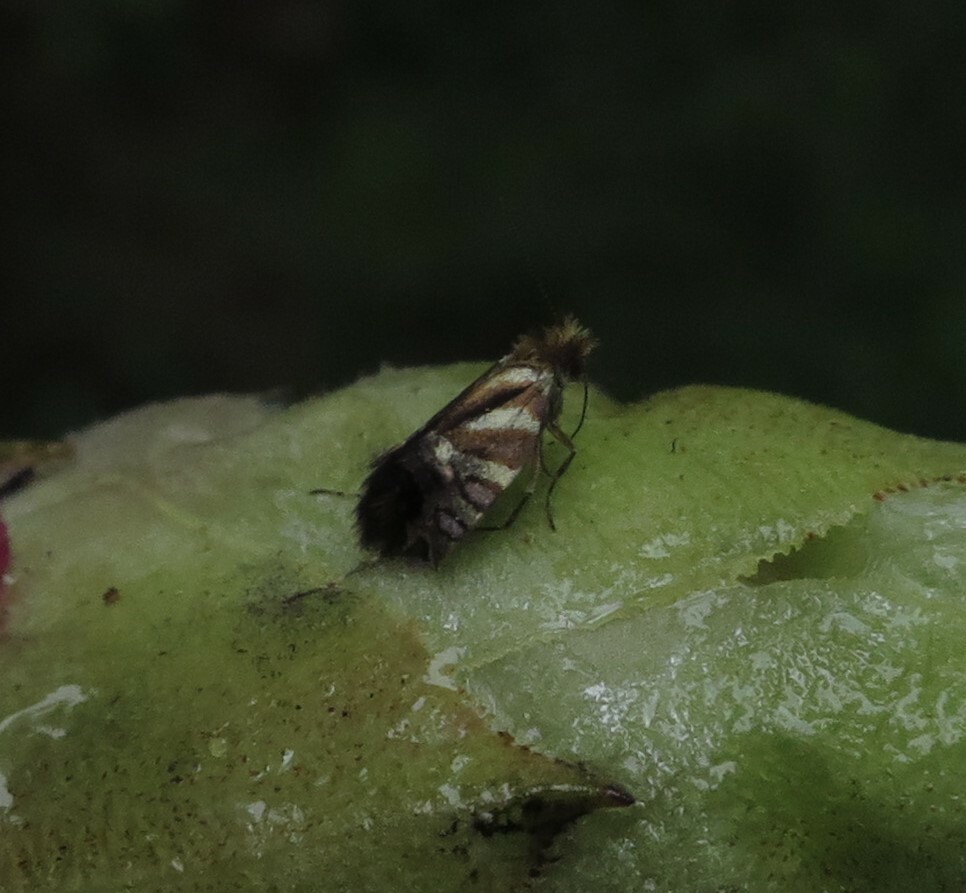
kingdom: Animalia
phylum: Arthropoda
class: Insecta
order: Lepidoptera
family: Micropterigidae
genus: Sabatinca
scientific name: Sabatinca doroxena
